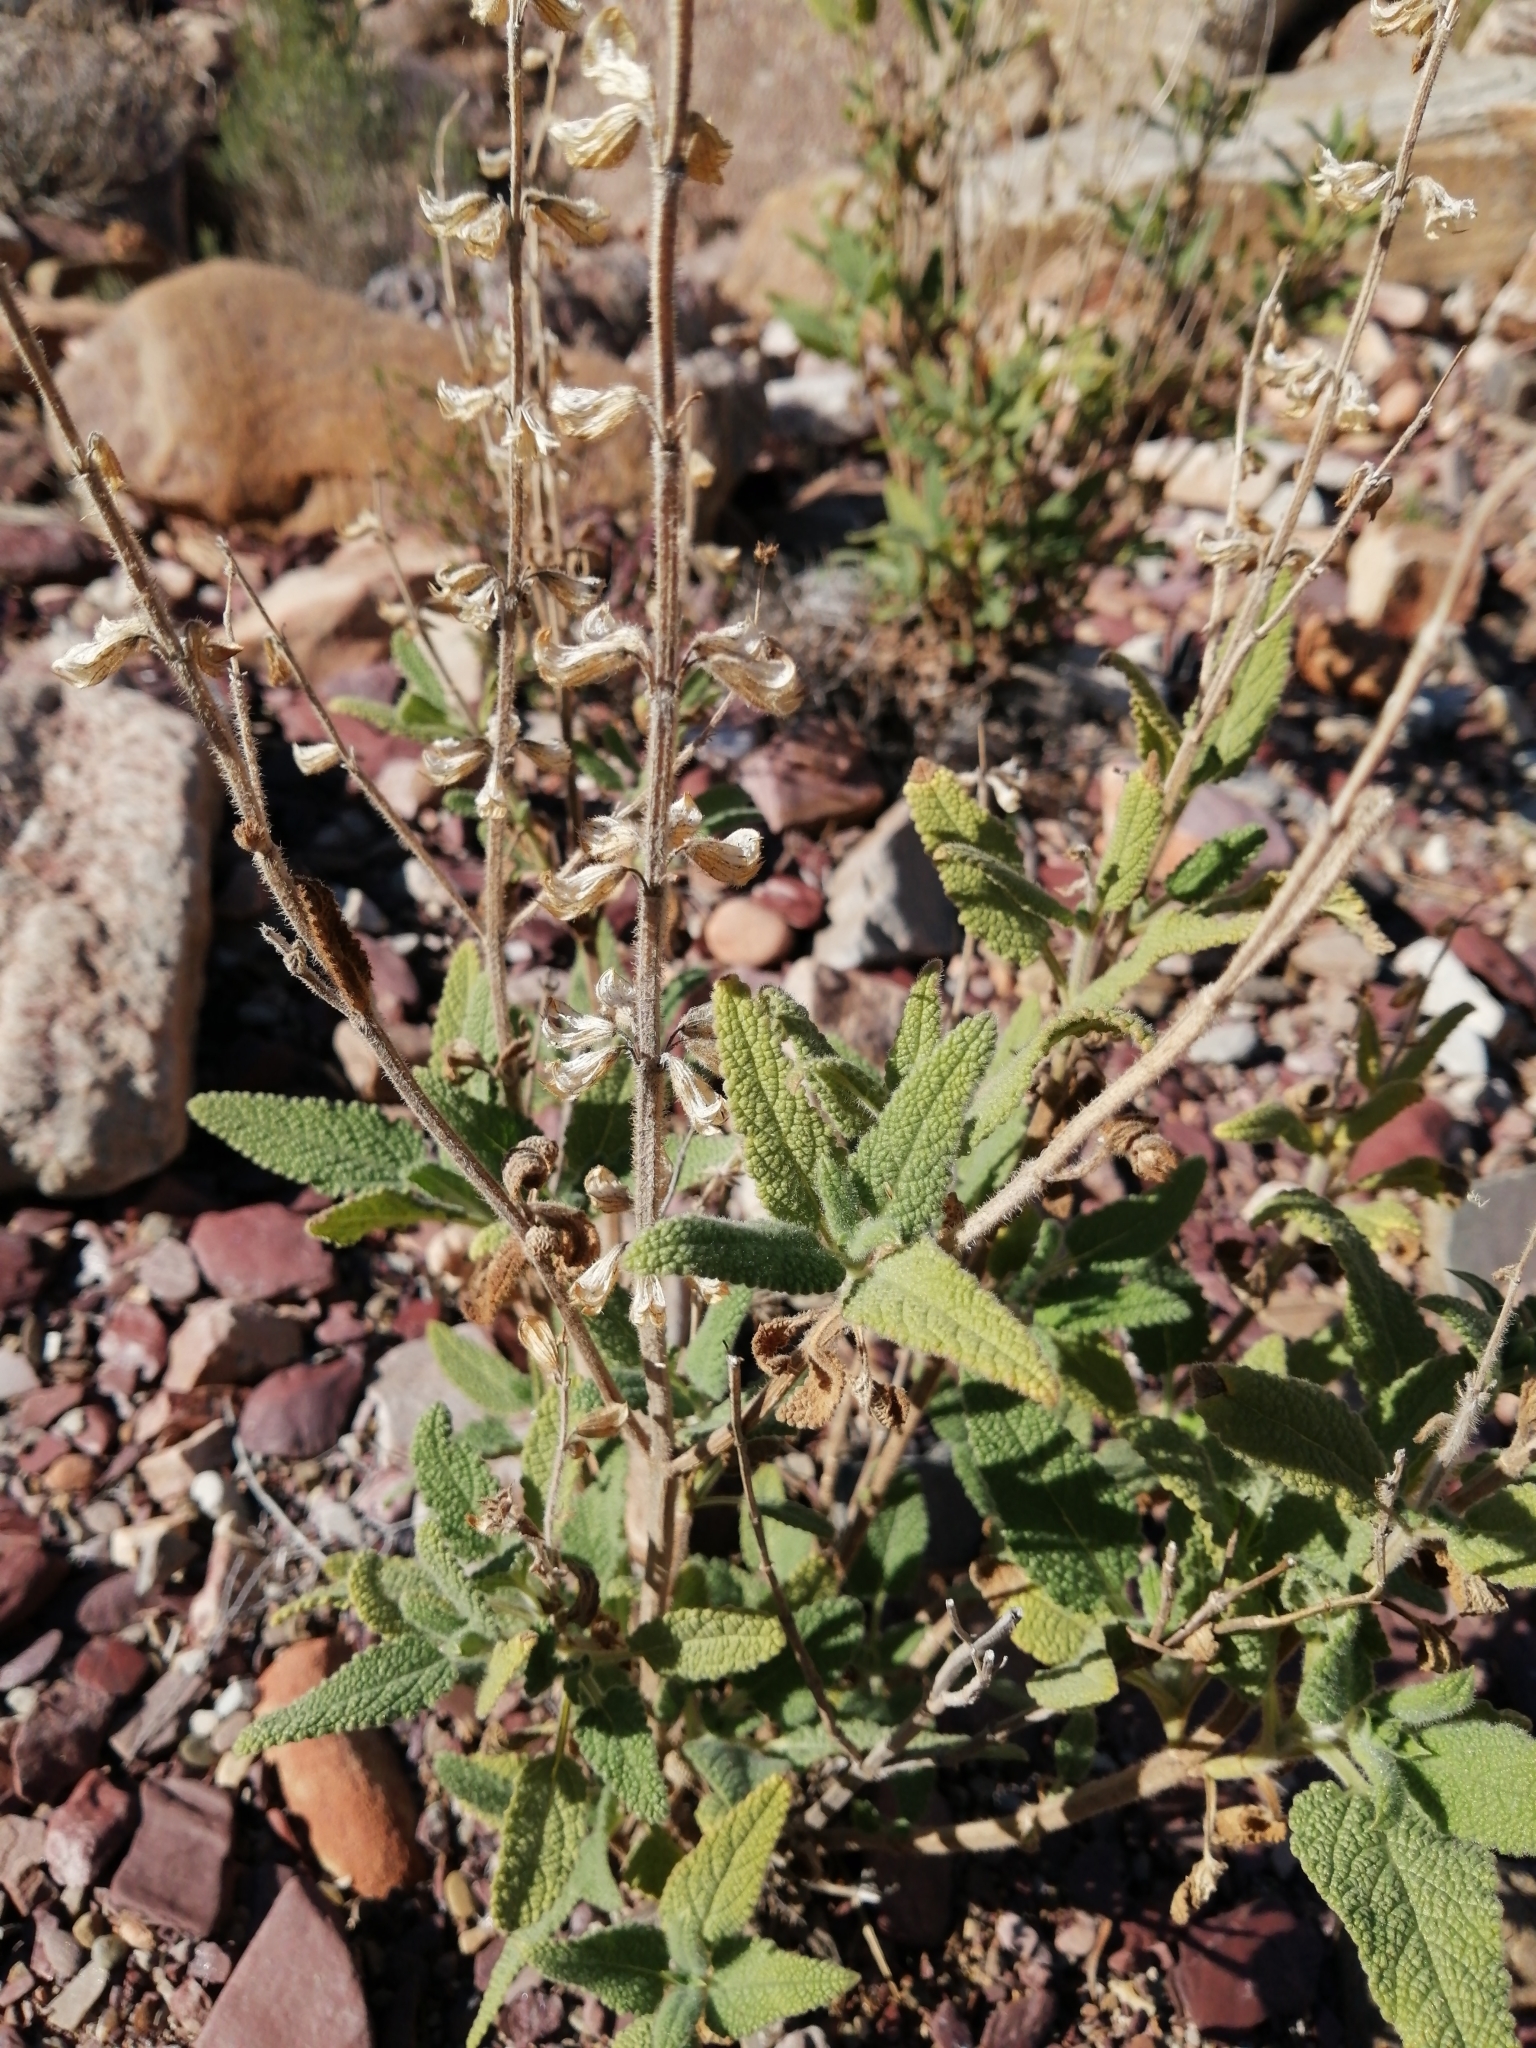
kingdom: Plantae
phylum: Tracheophyta
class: Magnoliopsida
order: Lamiales
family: Lamiaceae
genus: Salvia
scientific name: Salvia disermas
